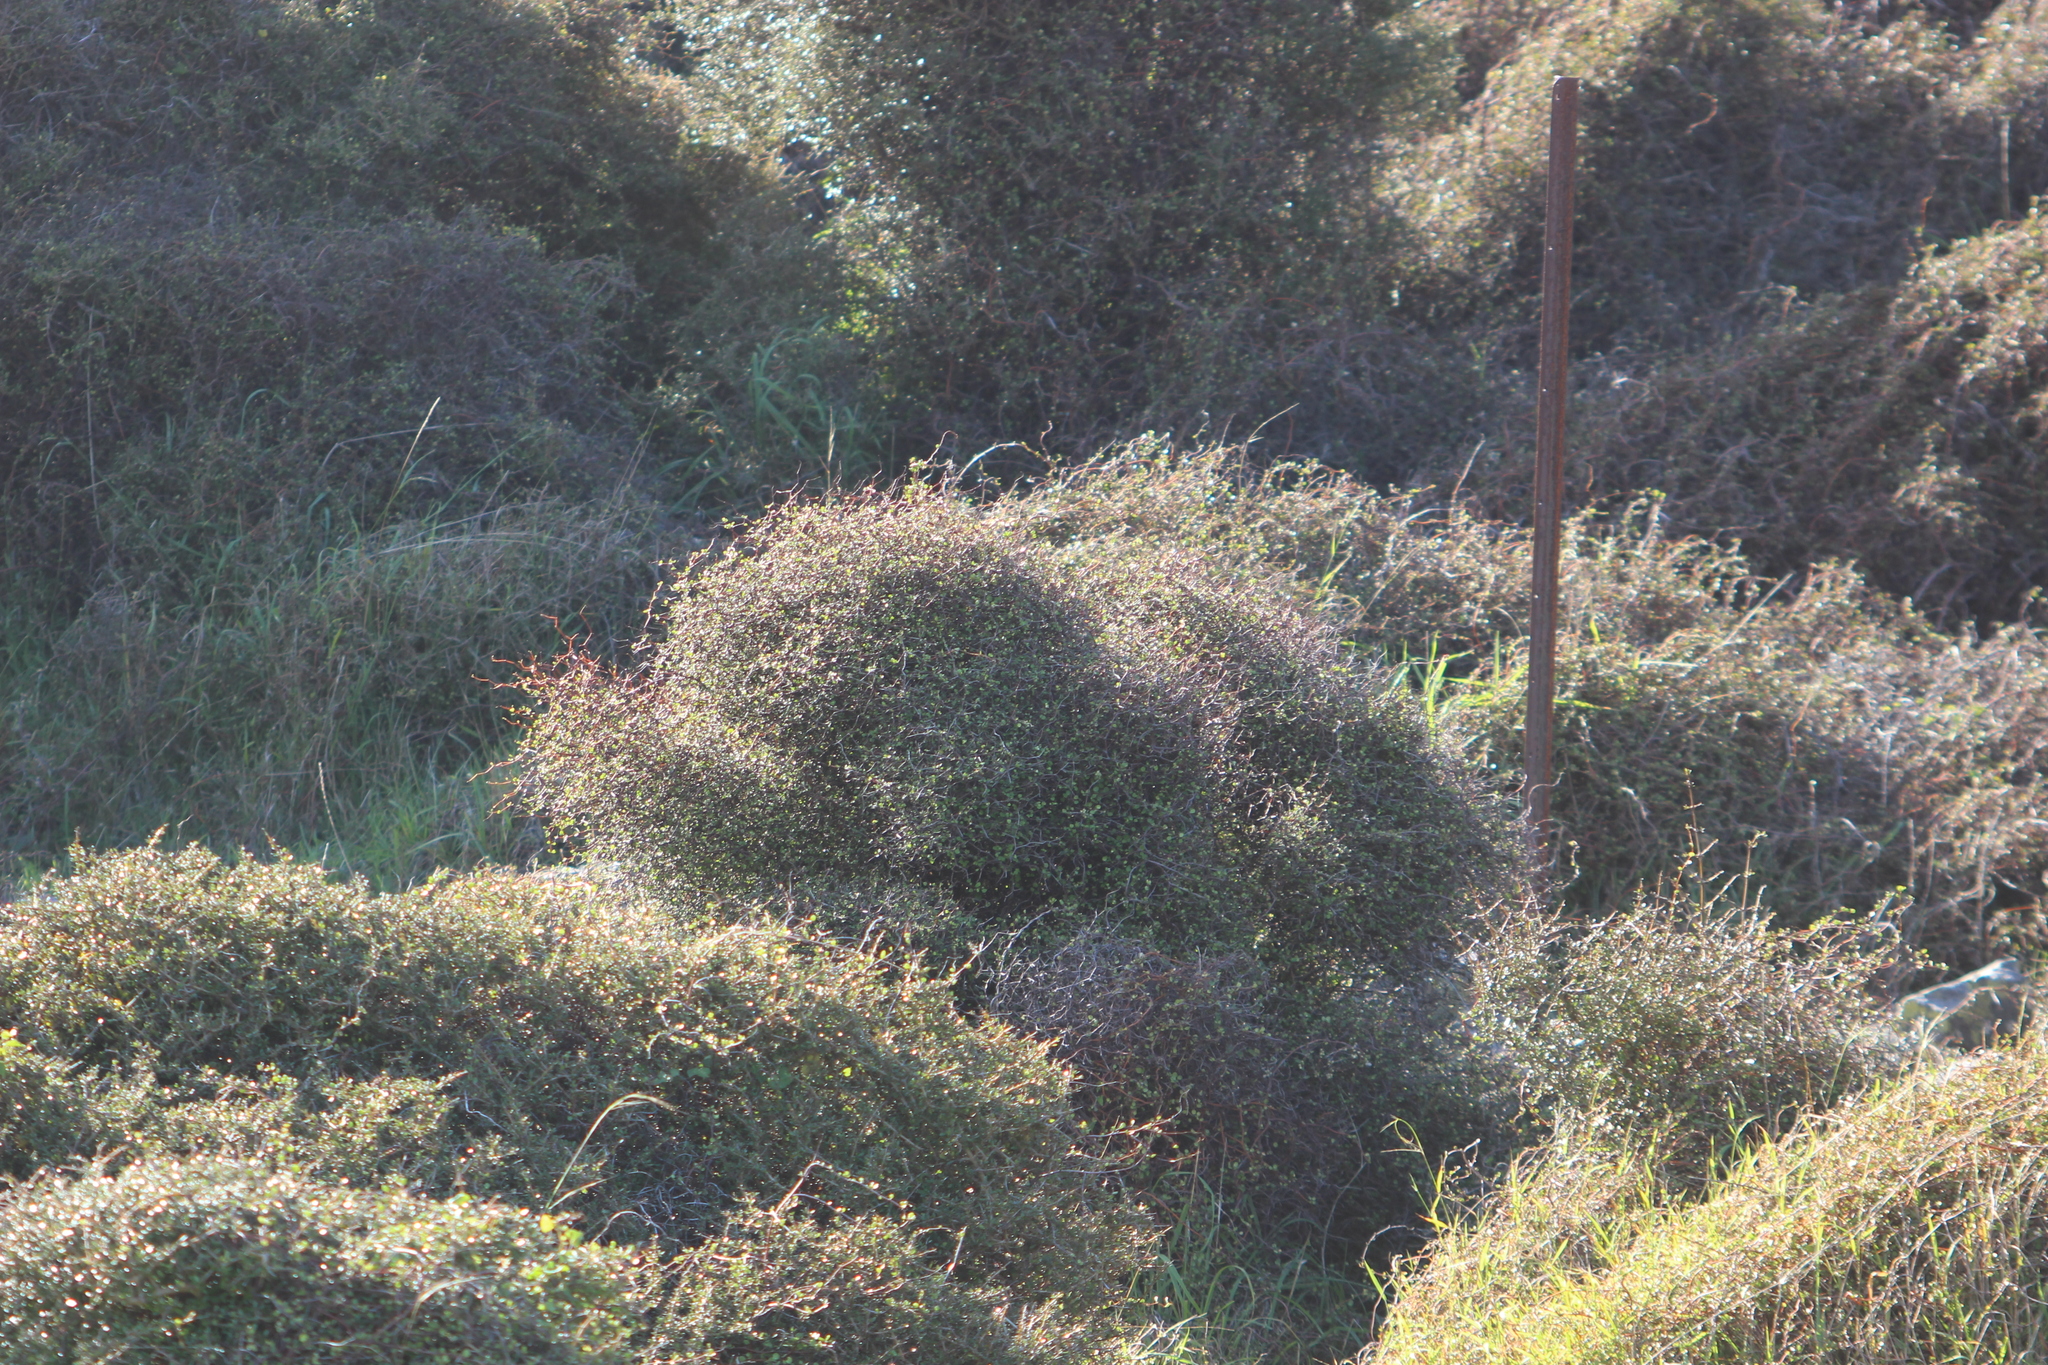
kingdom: Plantae
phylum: Tracheophyta
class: Magnoliopsida
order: Caryophyllales
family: Polygonaceae
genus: Muehlenbeckia
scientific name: Muehlenbeckia astonii
